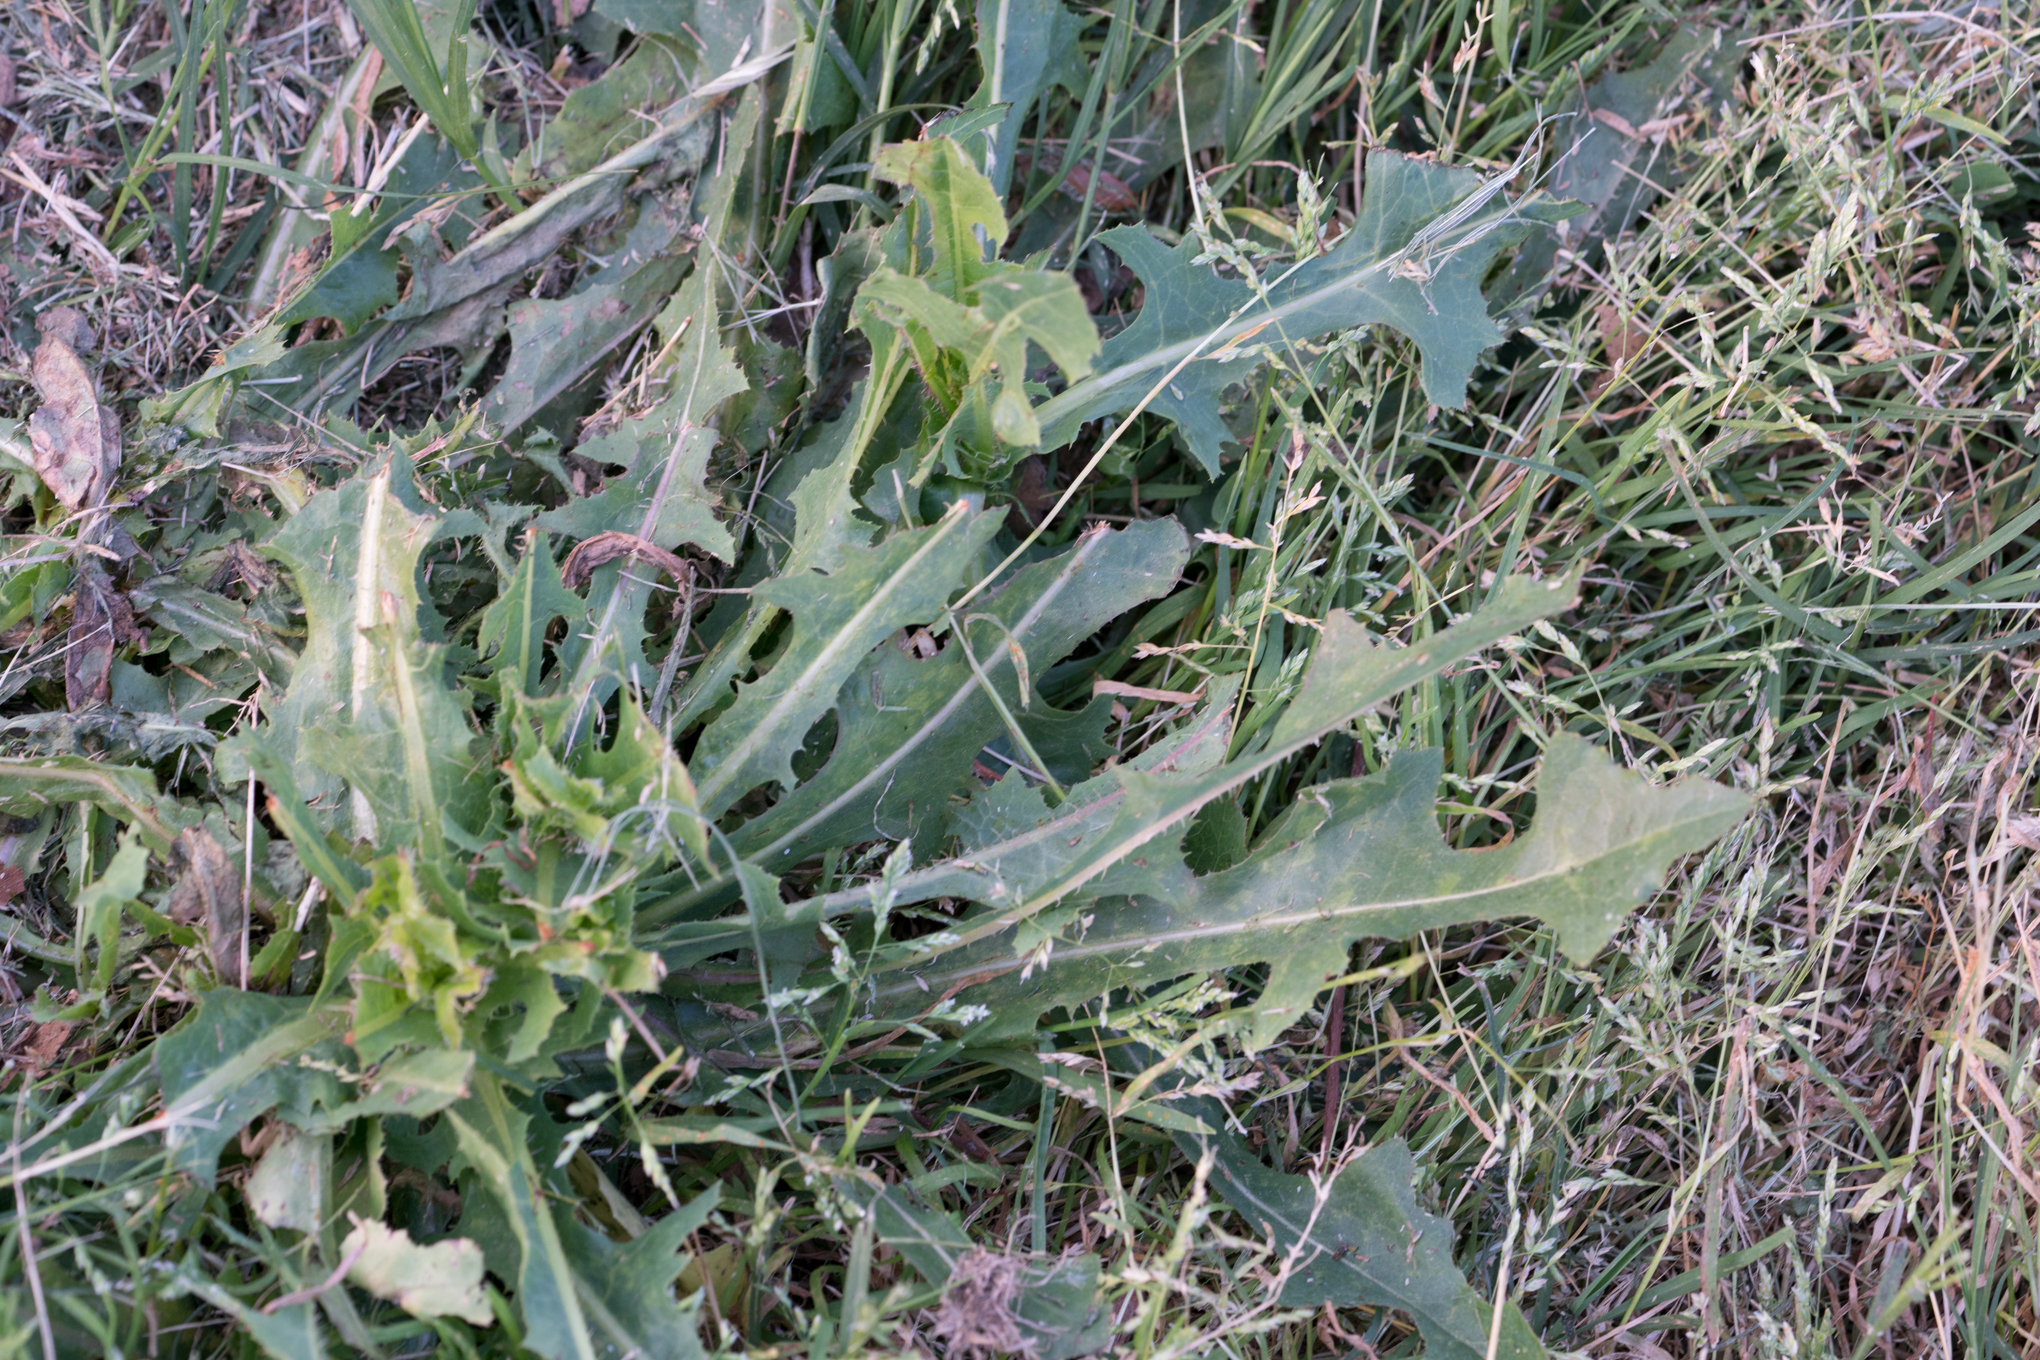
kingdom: Plantae
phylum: Tracheophyta
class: Magnoliopsida
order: Asterales
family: Asteraceae
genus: Lactuca
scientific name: Lactuca serriola
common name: Prickly lettuce
